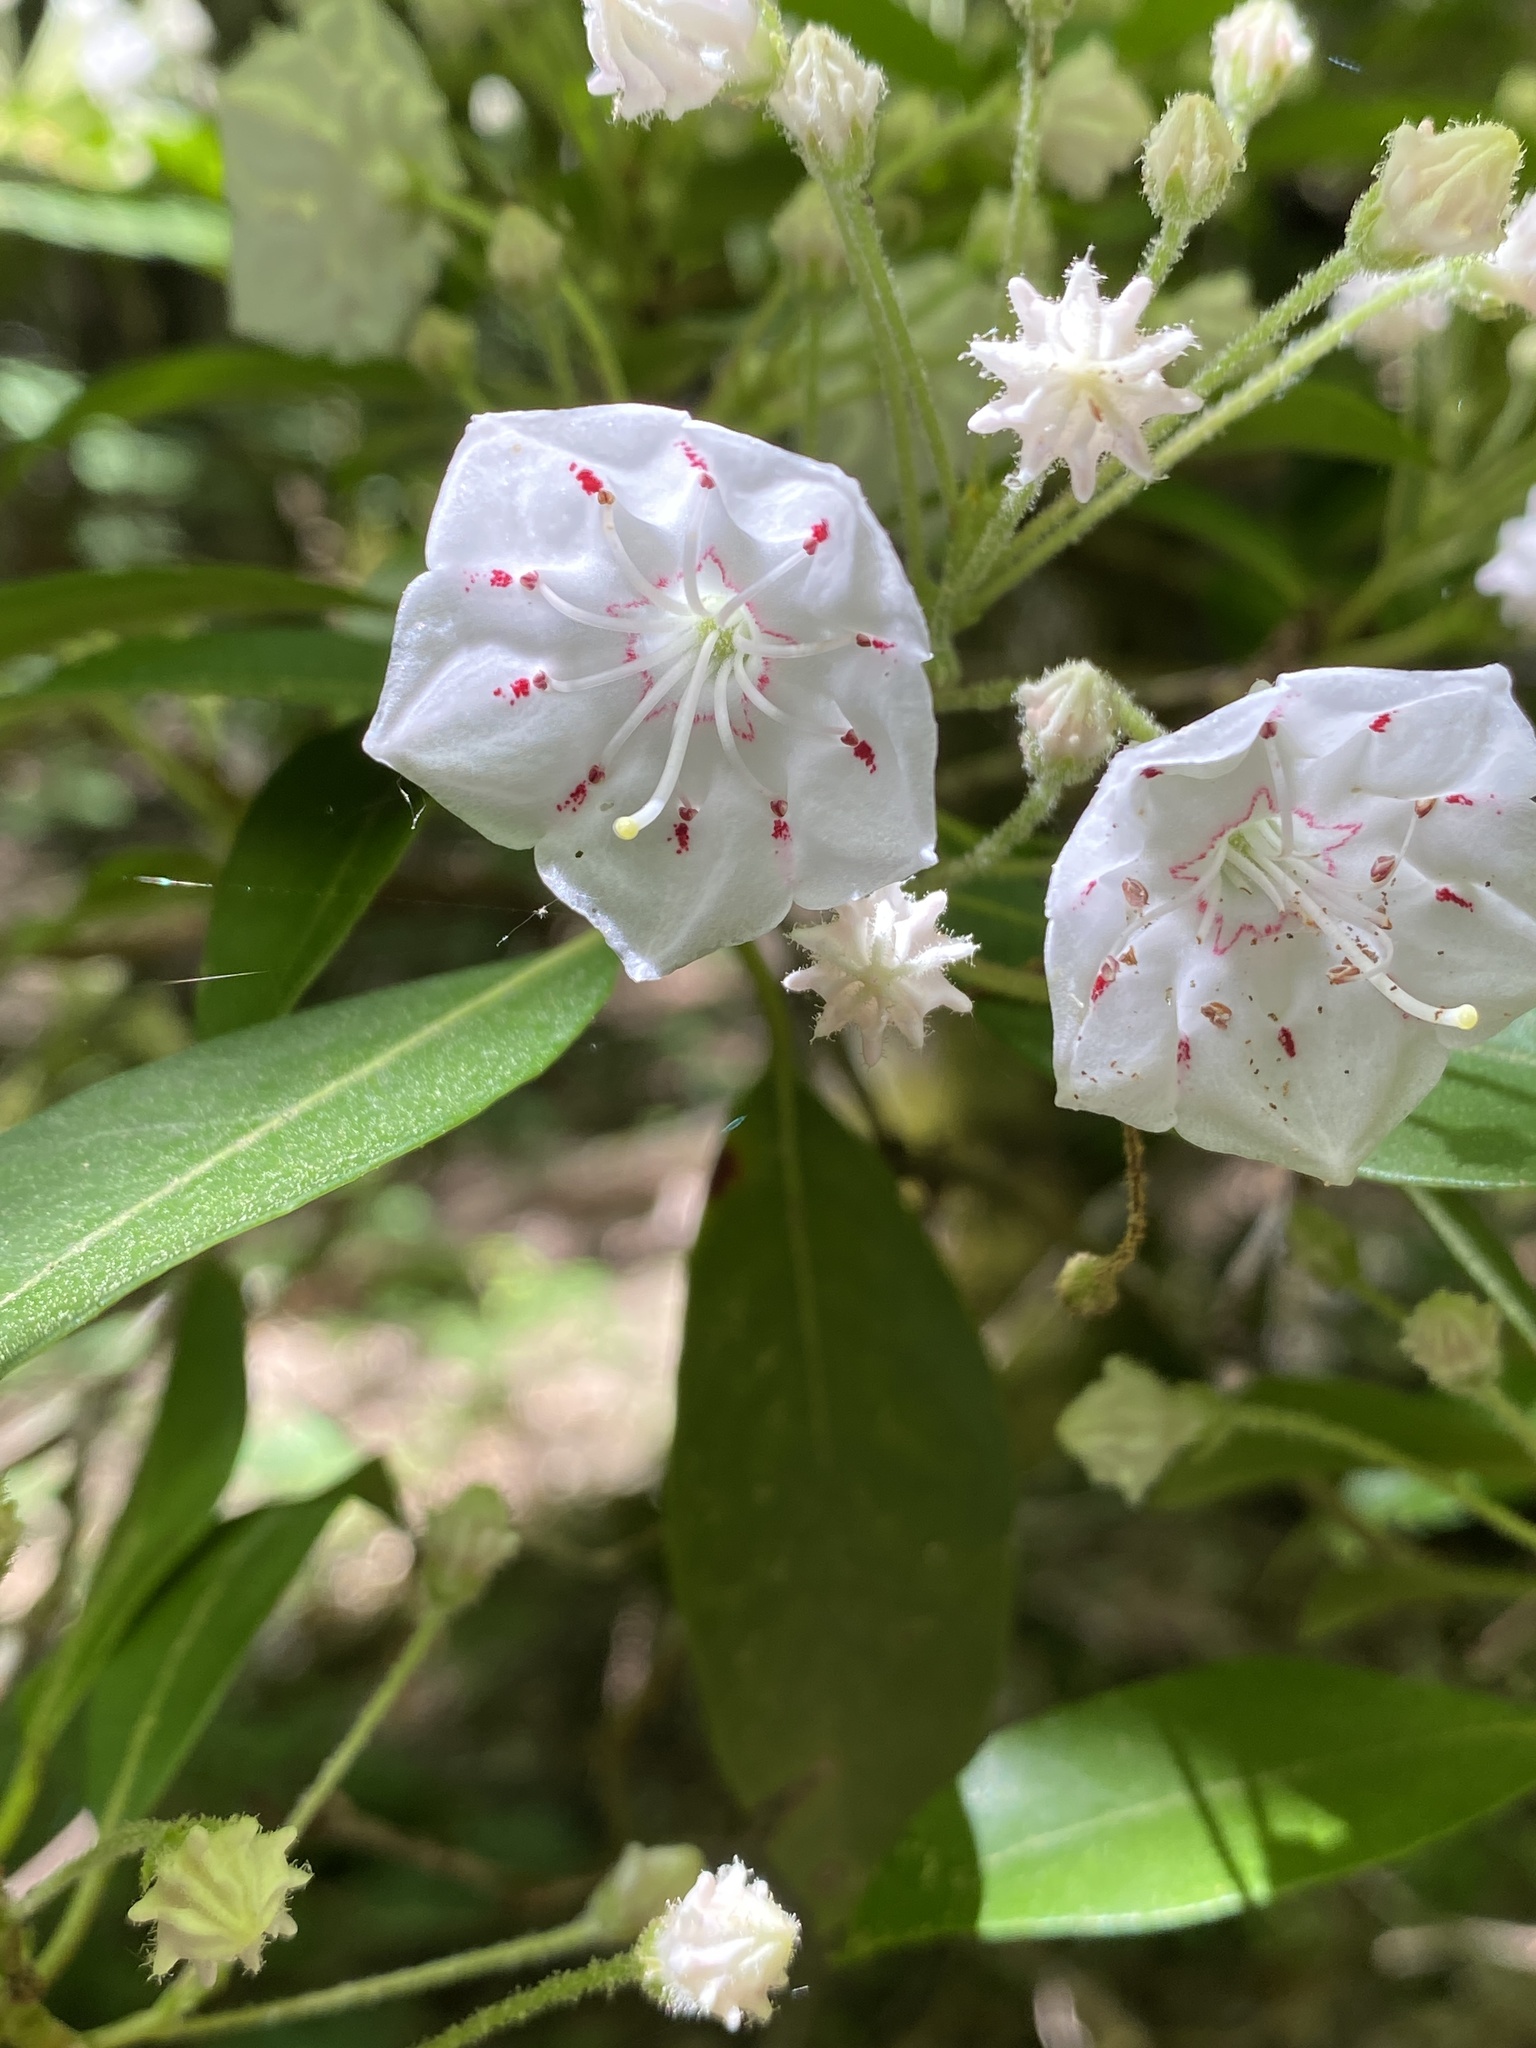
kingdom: Plantae
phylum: Tracheophyta
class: Magnoliopsida
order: Ericales
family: Ericaceae
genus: Kalmia
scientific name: Kalmia latifolia
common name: Mountain-laurel
